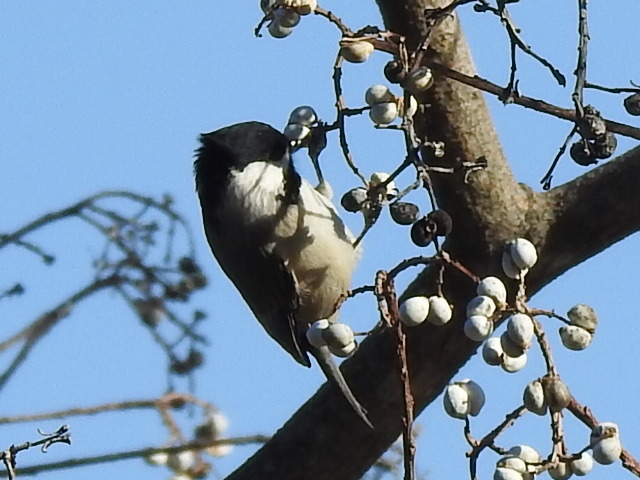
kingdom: Animalia
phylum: Chordata
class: Aves
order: Passeriformes
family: Paridae
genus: Poecile
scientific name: Poecile carolinensis
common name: Carolina chickadee
